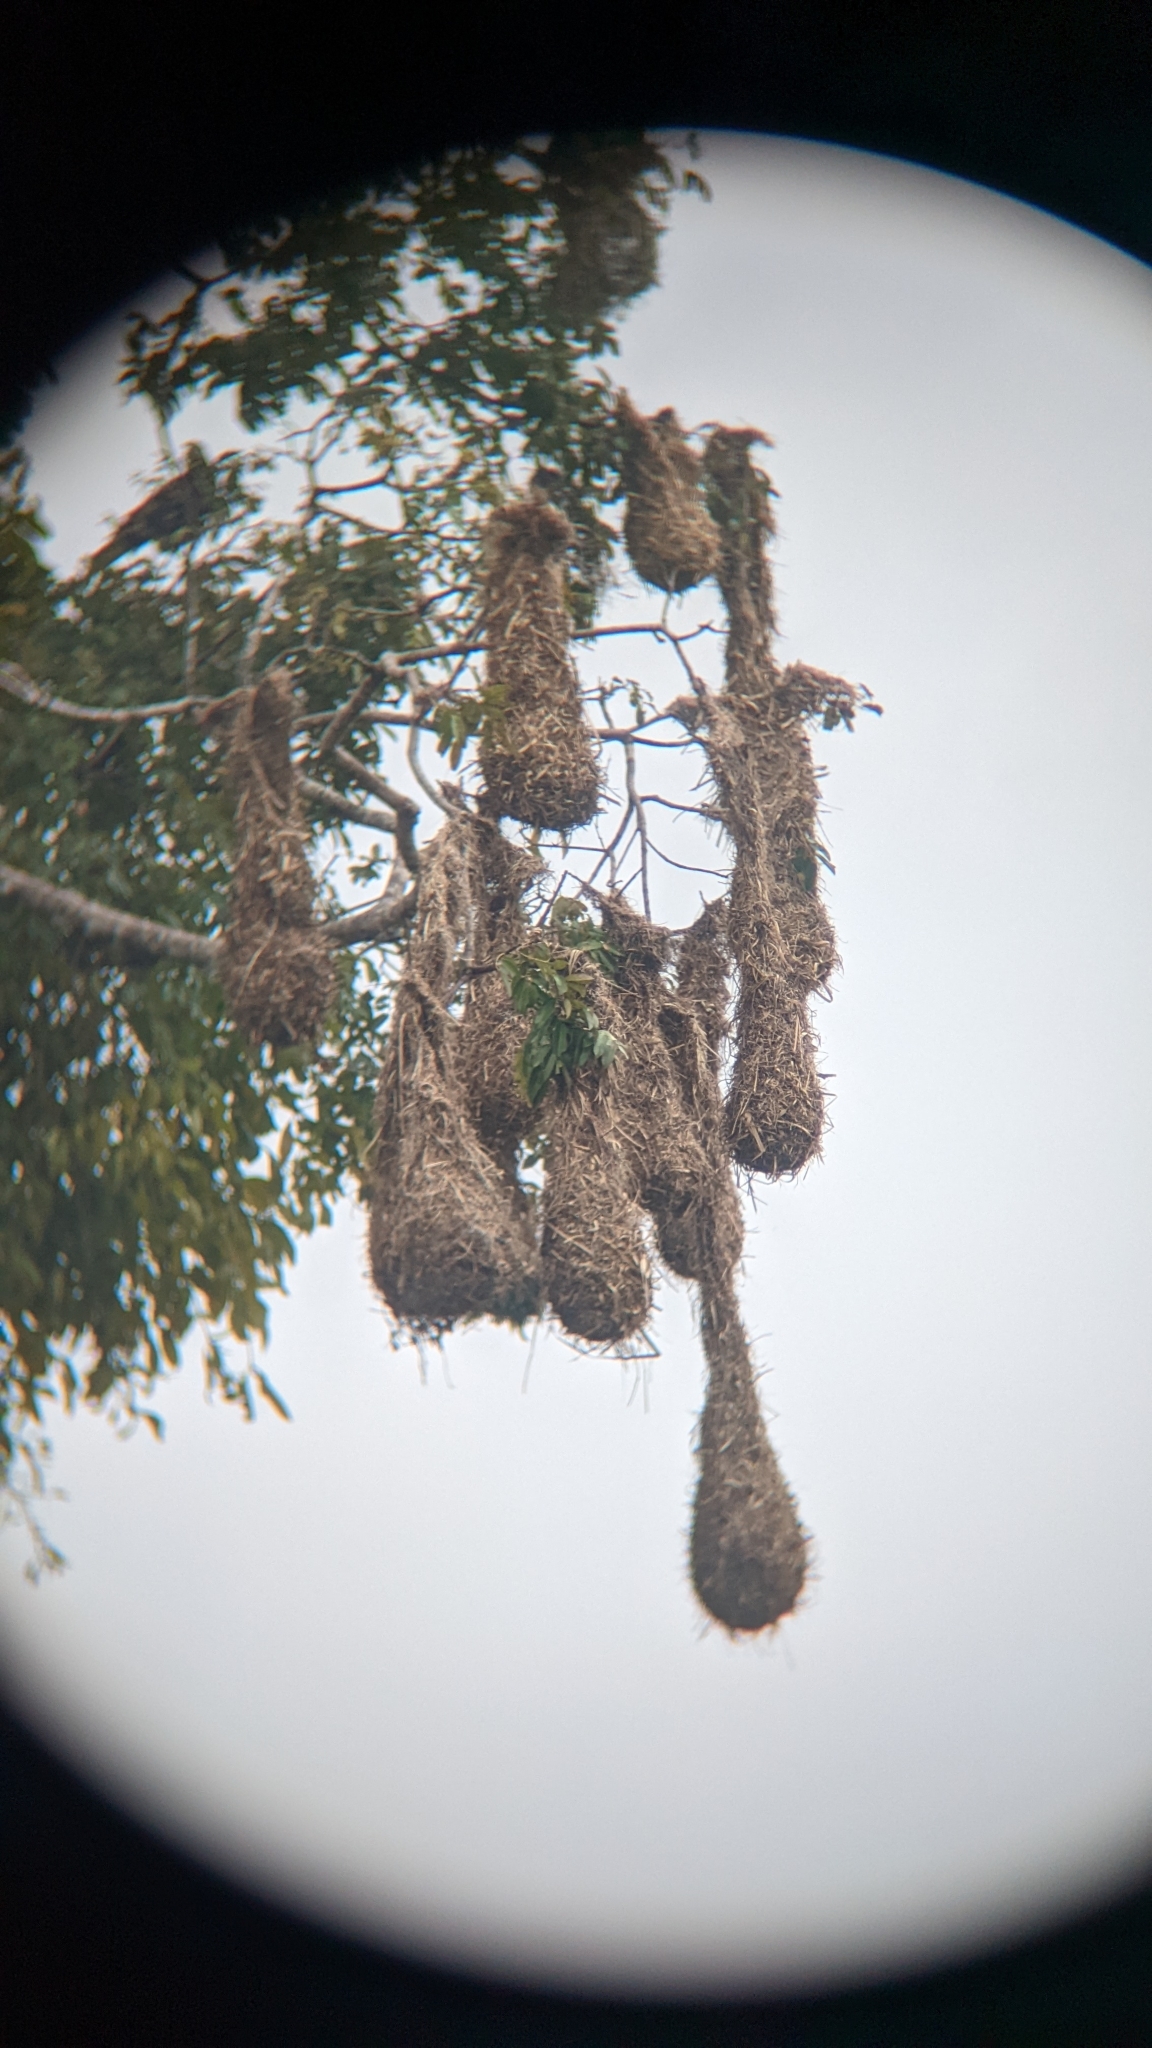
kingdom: Animalia
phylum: Chordata
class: Aves
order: Passeriformes
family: Icteridae
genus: Psarocolius
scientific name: Psarocolius montezuma
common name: Montezuma oropendola
